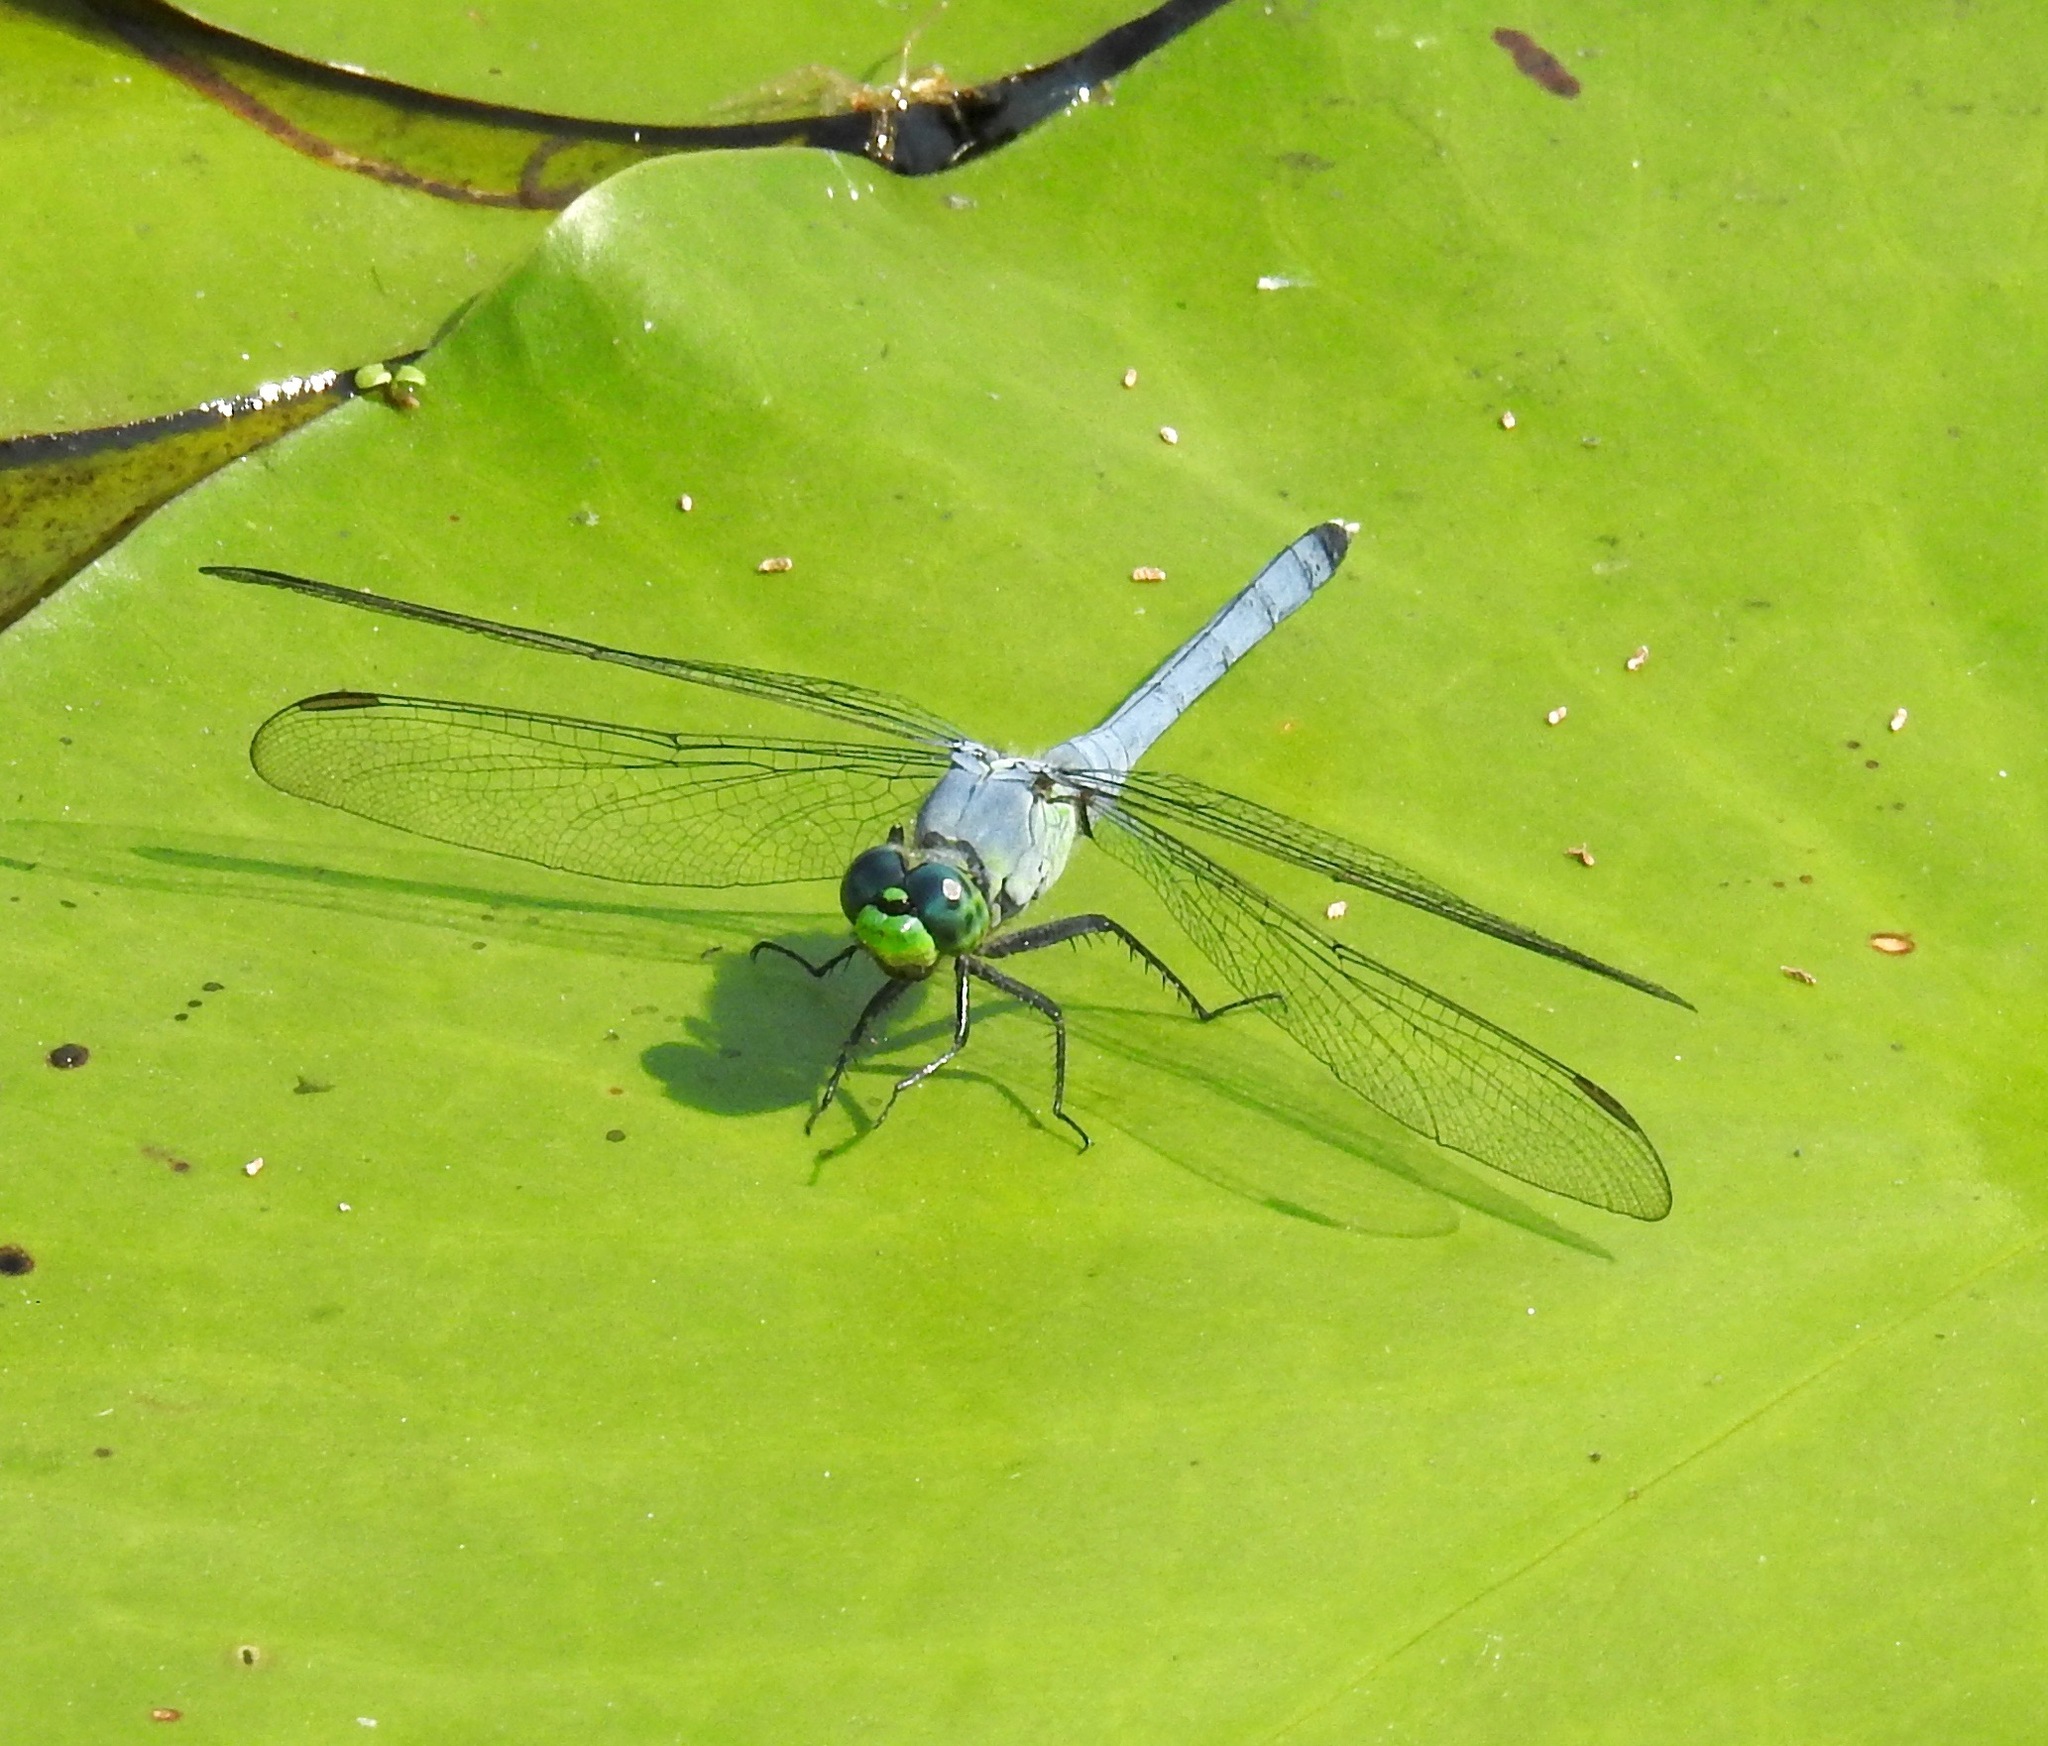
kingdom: Animalia
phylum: Arthropoda
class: Insecta
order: Odonata
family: Libellulidae
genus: Erythemis
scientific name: Erythemis simplicicollis
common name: Eastern pondhawk
